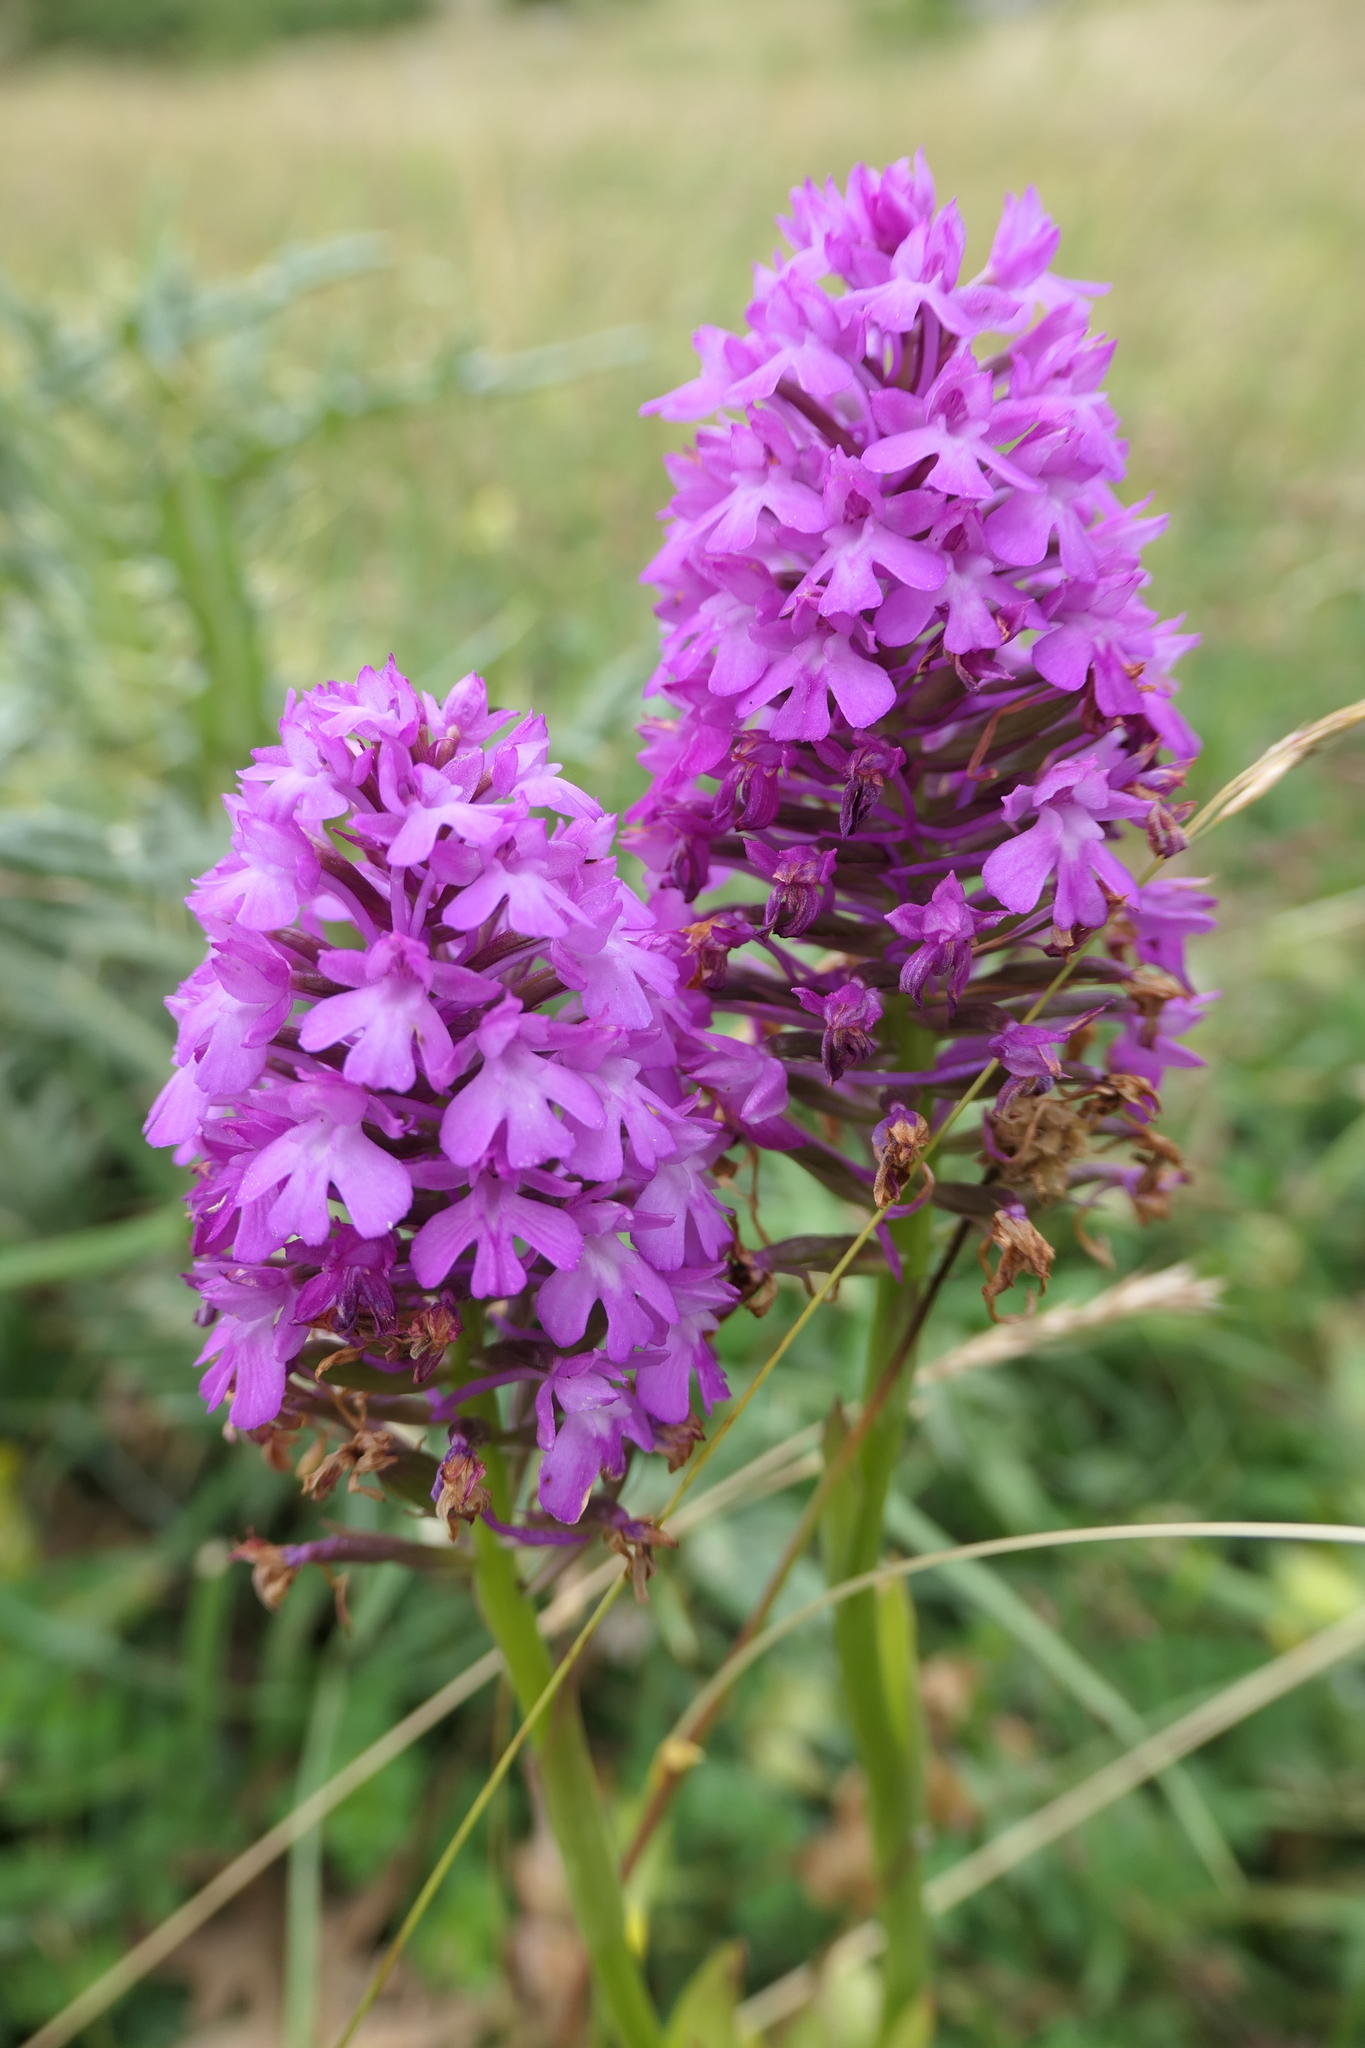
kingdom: Plantae
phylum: Tracheophyta
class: Liliopsida
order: Asparagales
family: Orchidaceae
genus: Anacamptis
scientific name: Anacamptis pyramidalis
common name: Pyramidal orchid
